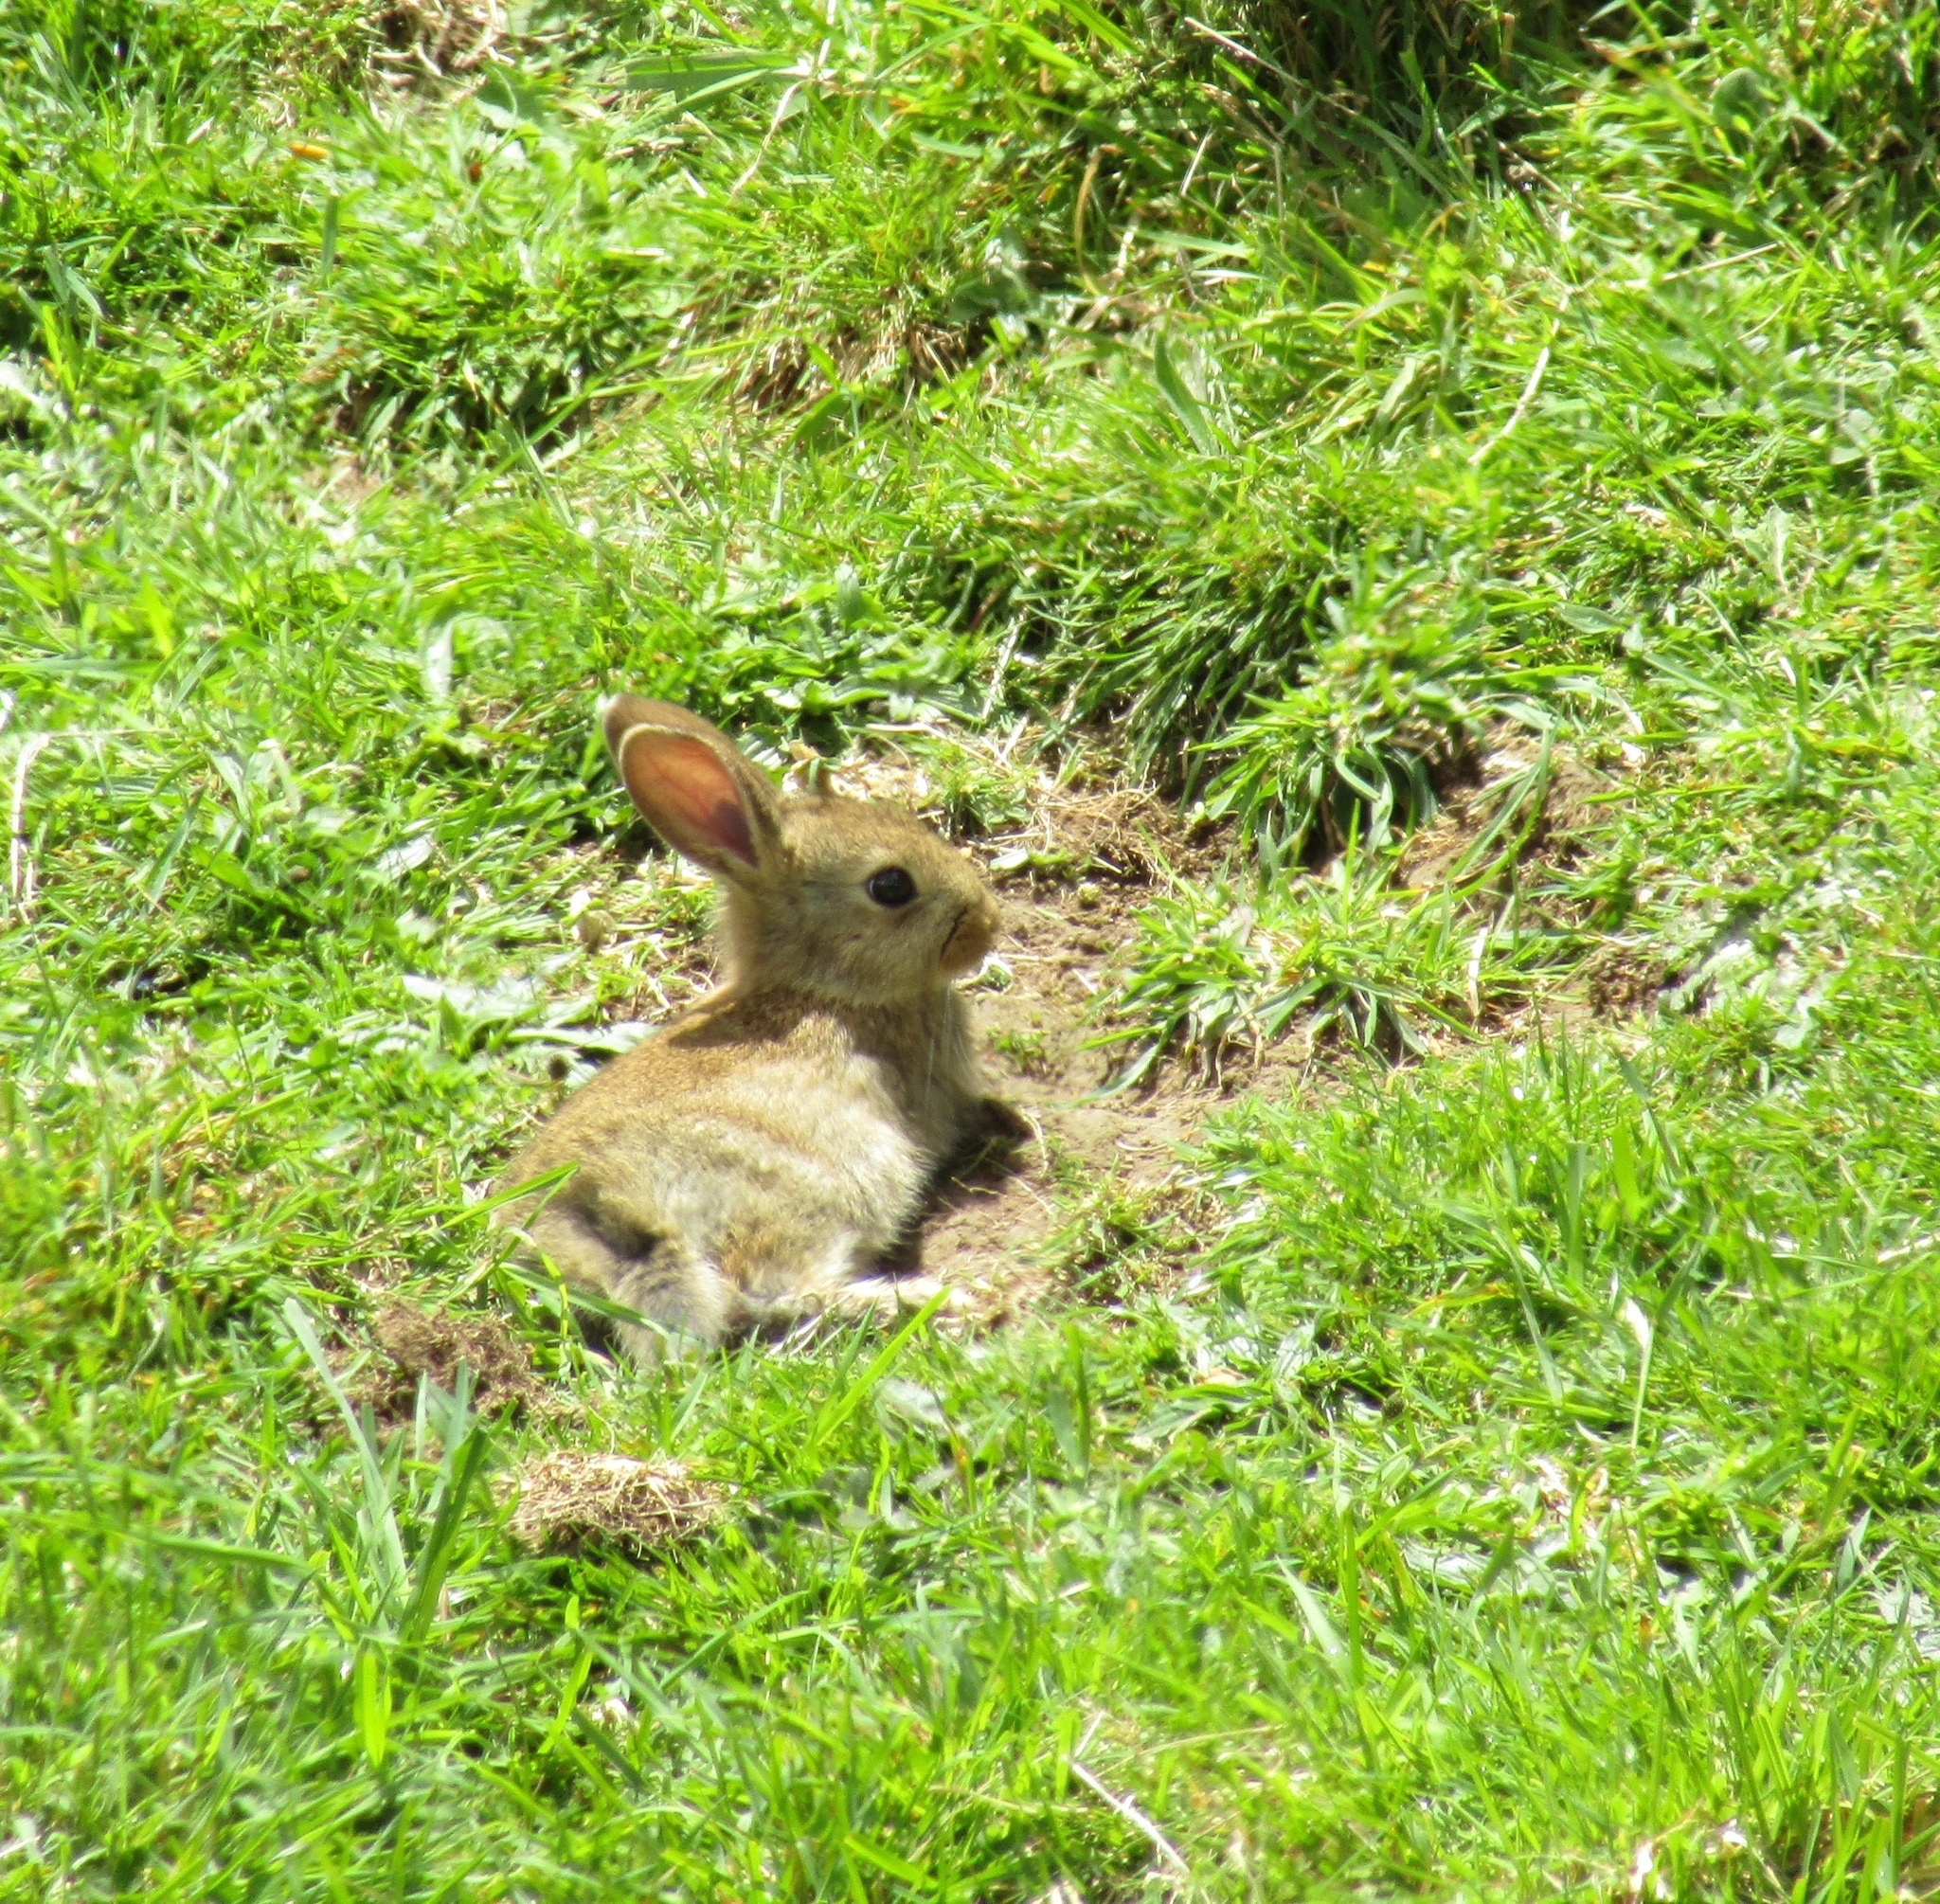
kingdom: Animalia
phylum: Chordata
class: Mammalia
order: Lagomorpha
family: Leporidae
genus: Oryctolagus
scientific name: Oryctolagus cuniculus
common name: European rabbit
